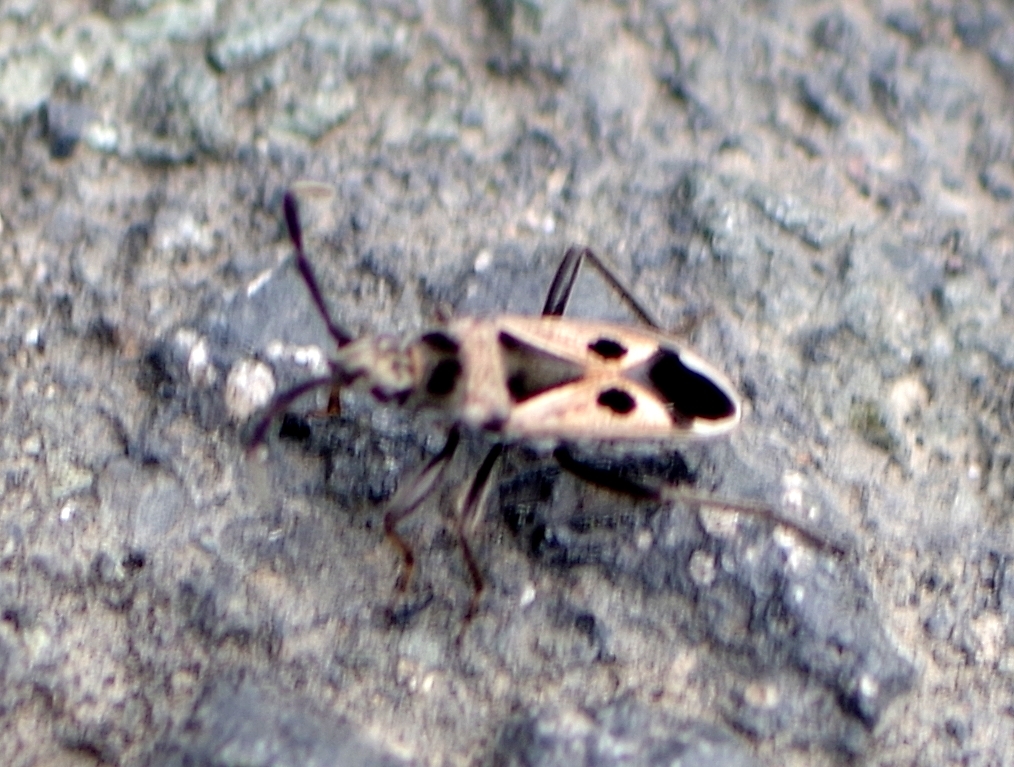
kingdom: Animalia
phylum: Arthropoda
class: Insecta
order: Hemiptera
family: Rhyparochromidae
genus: Lasiocoris
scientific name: Lasiocoris crassicornis
